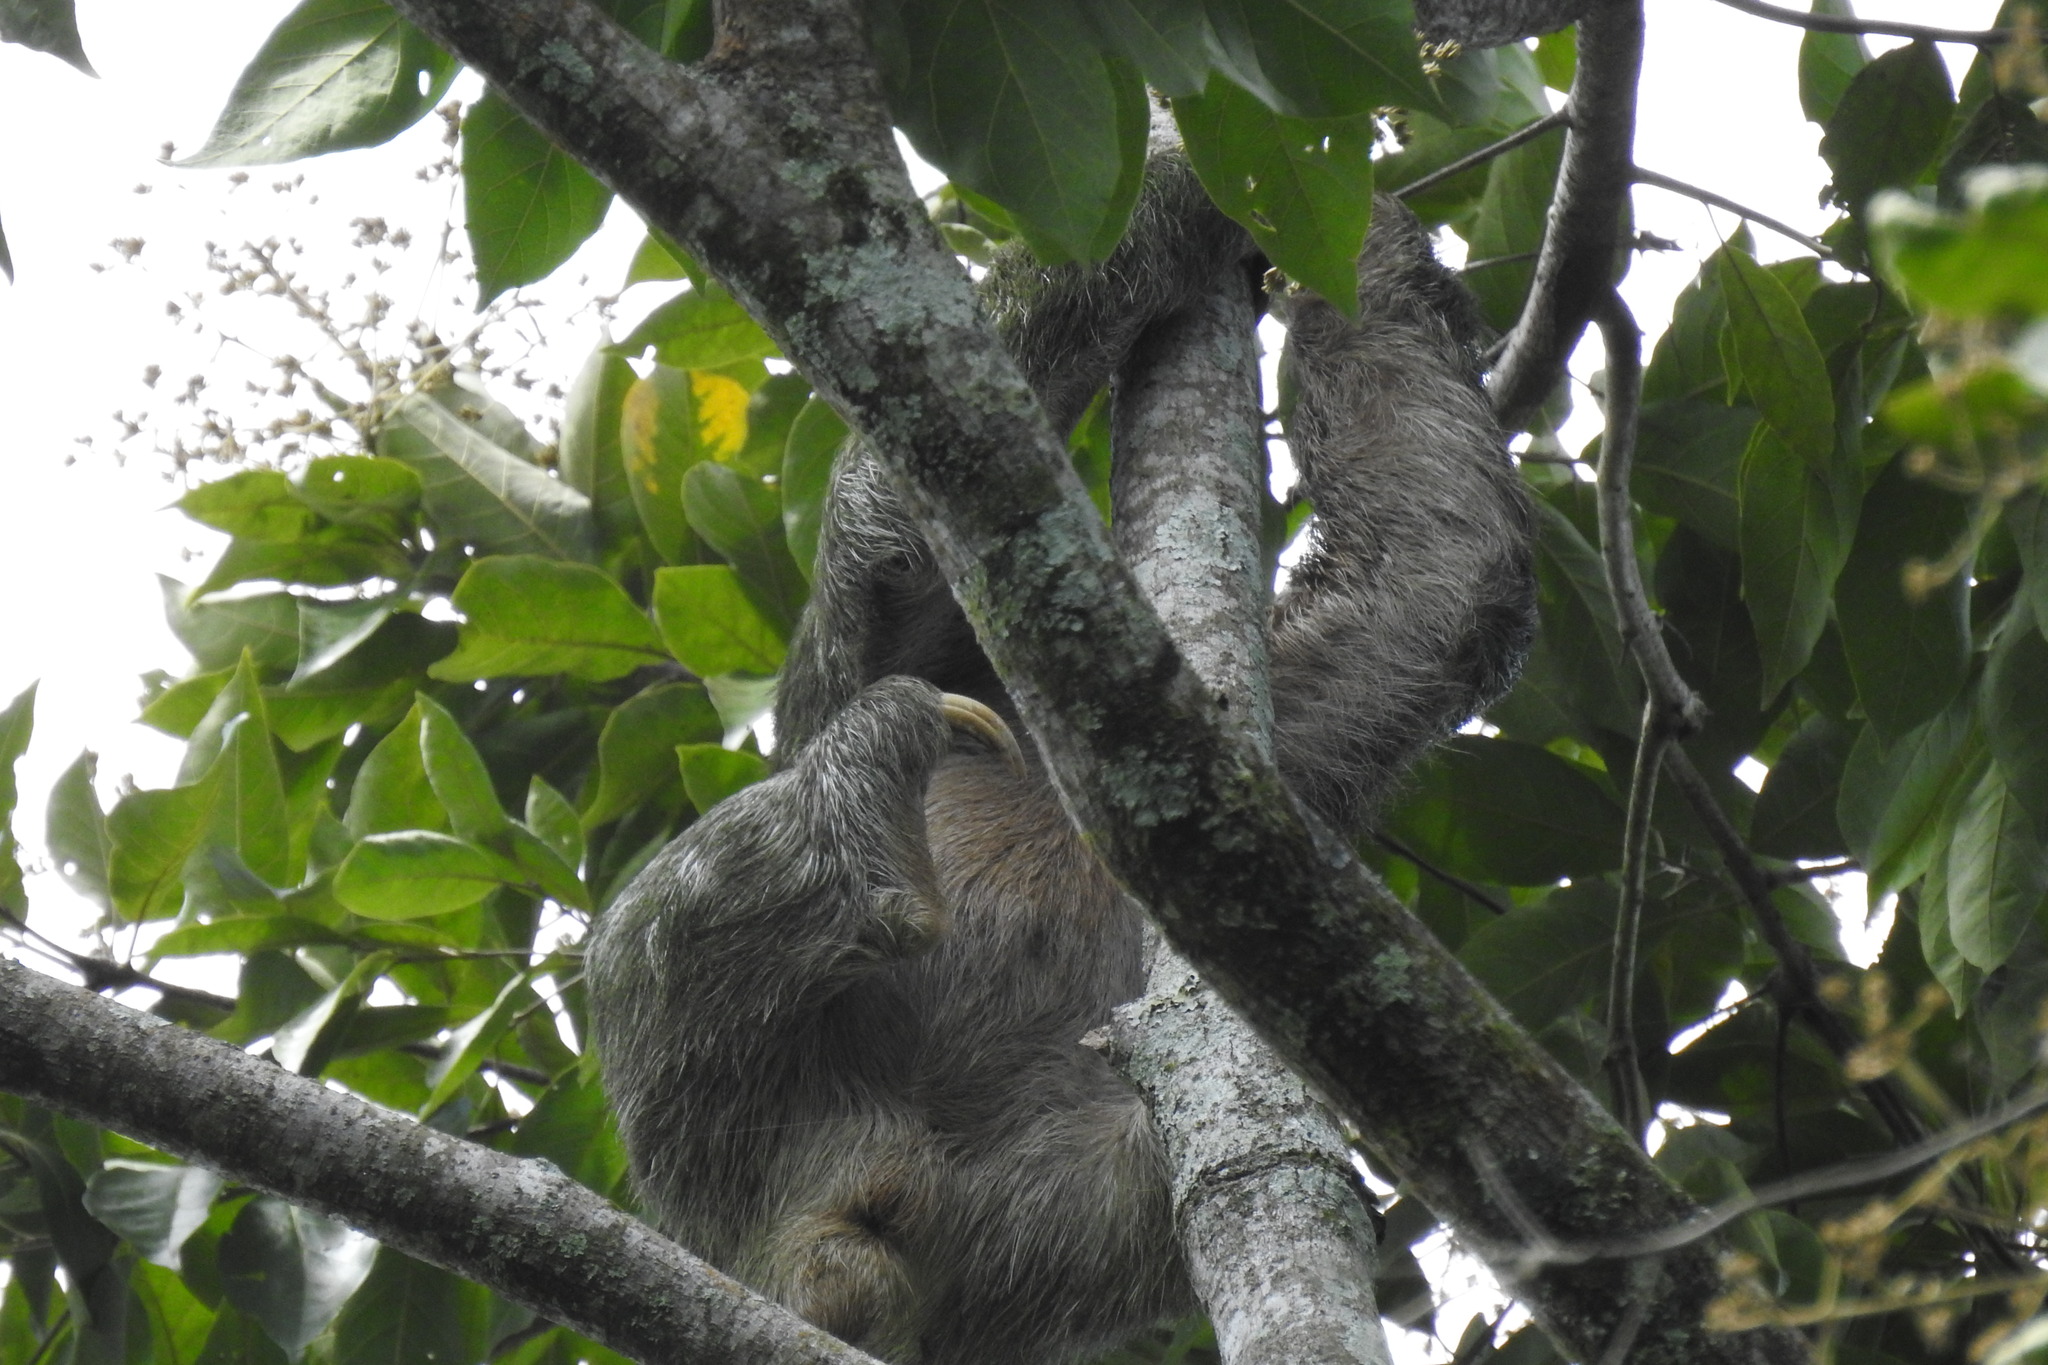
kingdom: Animalia
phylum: Chordata
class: Mammalia
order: Pilosa
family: Bradypodidae
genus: Bradypus
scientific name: Bradypus variegatus
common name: Brown-throated three-toed sloth
